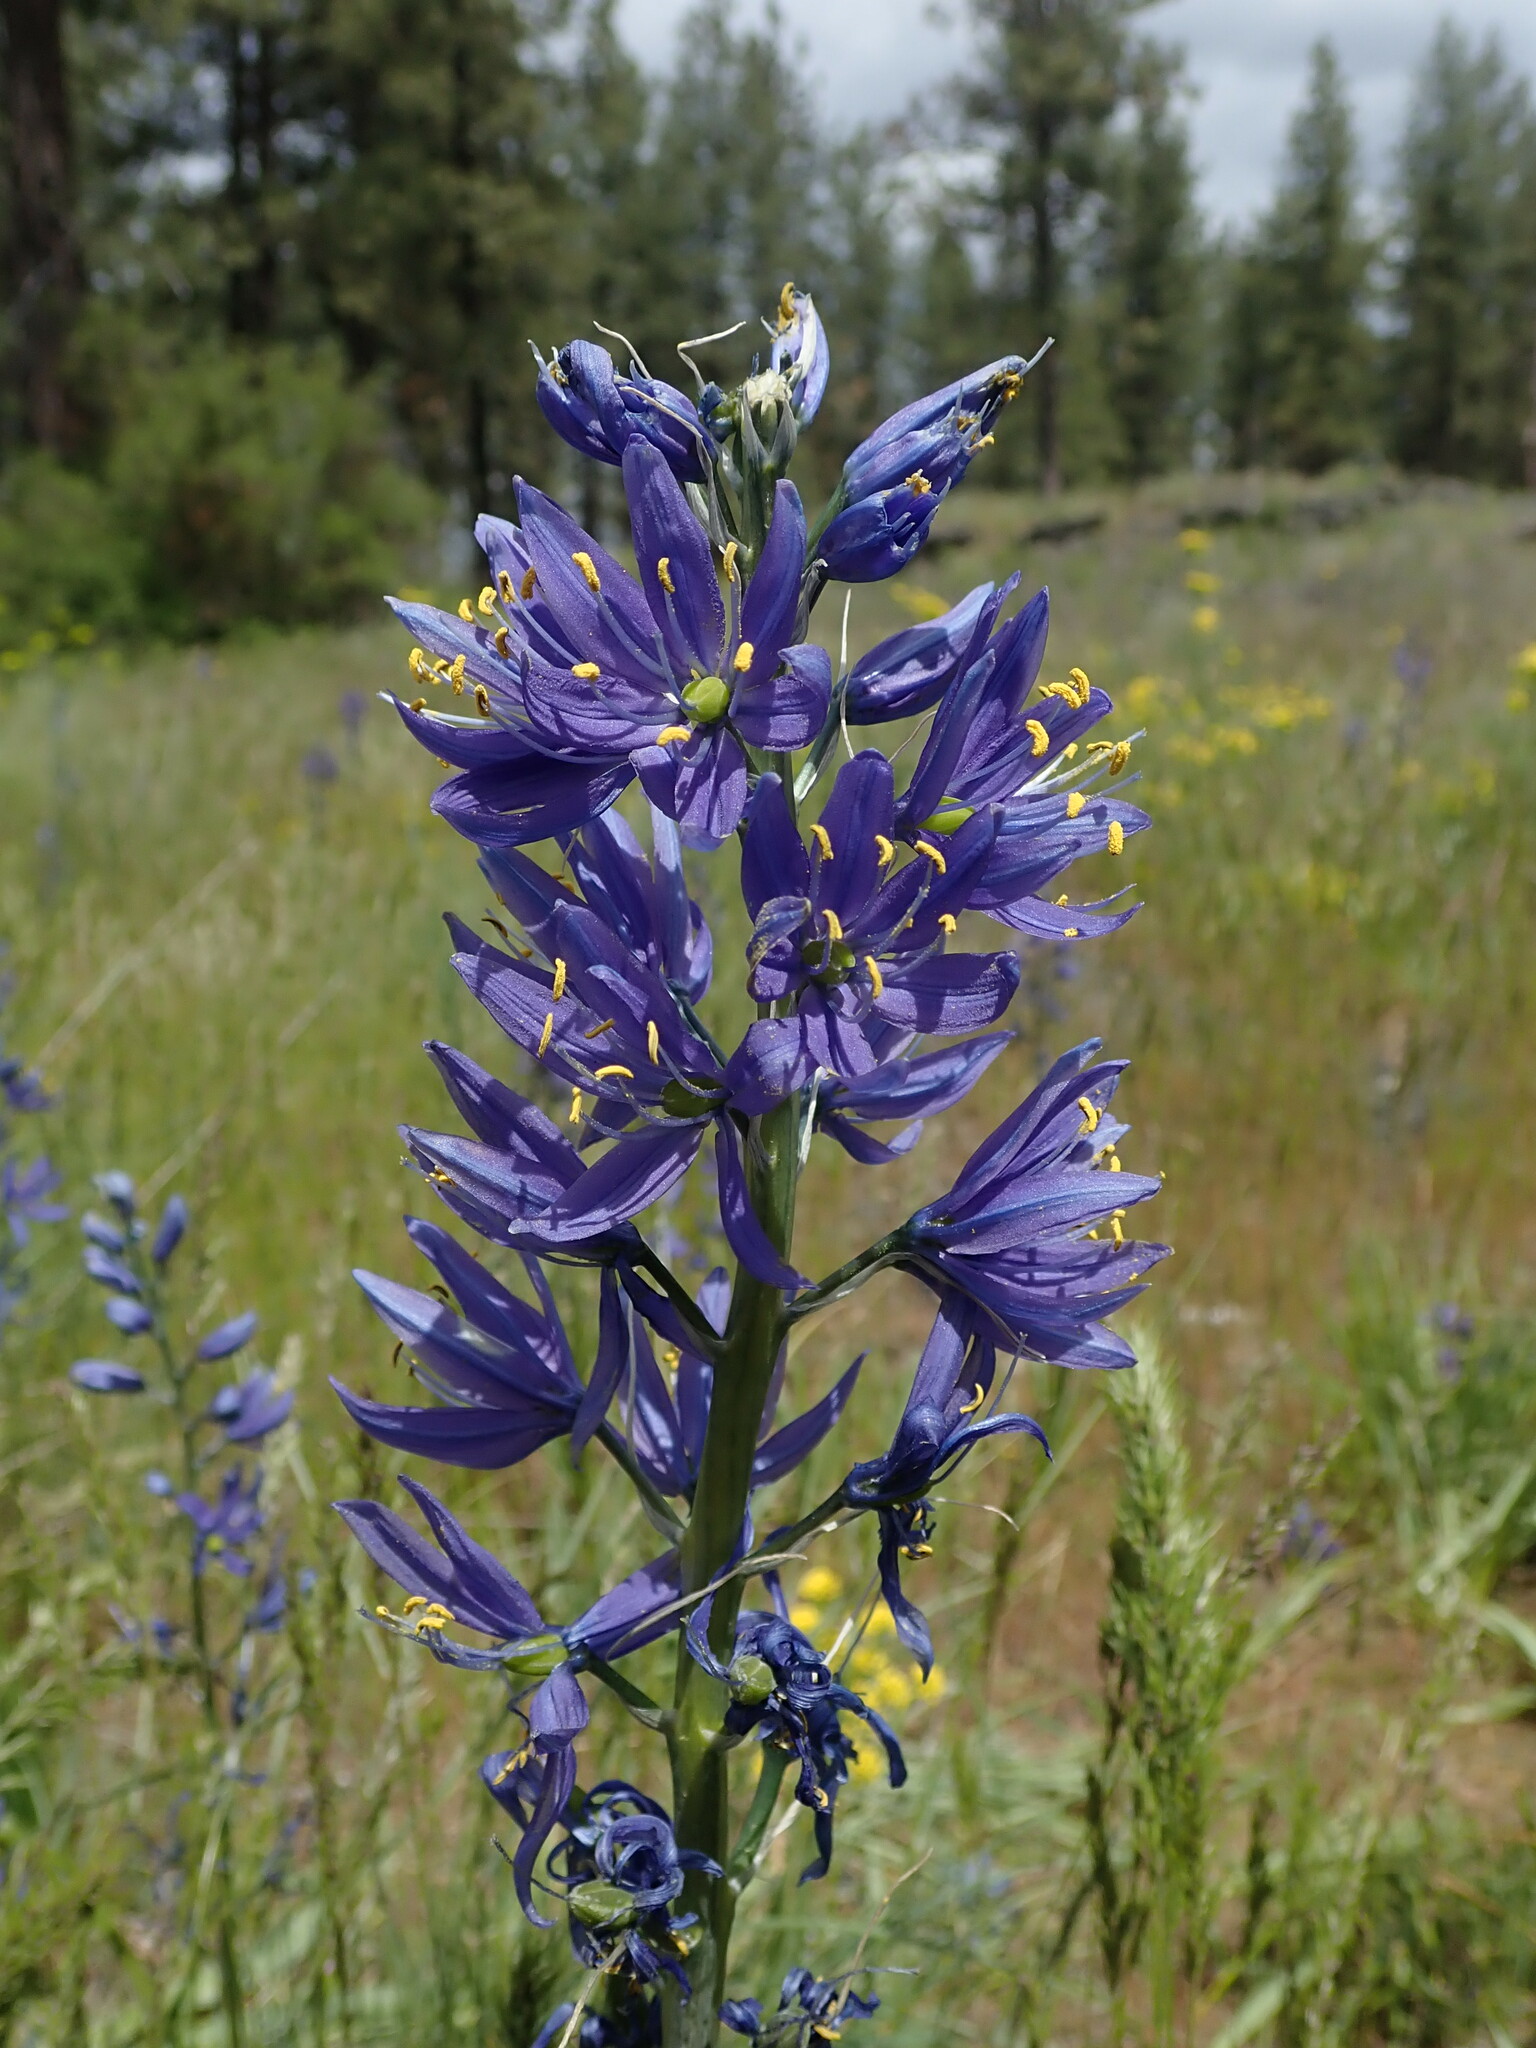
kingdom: Plantae
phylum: Tracheophyta
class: Liliopsida
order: Asparagales
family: Asparagaceae
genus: Camassia
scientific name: Camassia quamash
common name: Common camas
